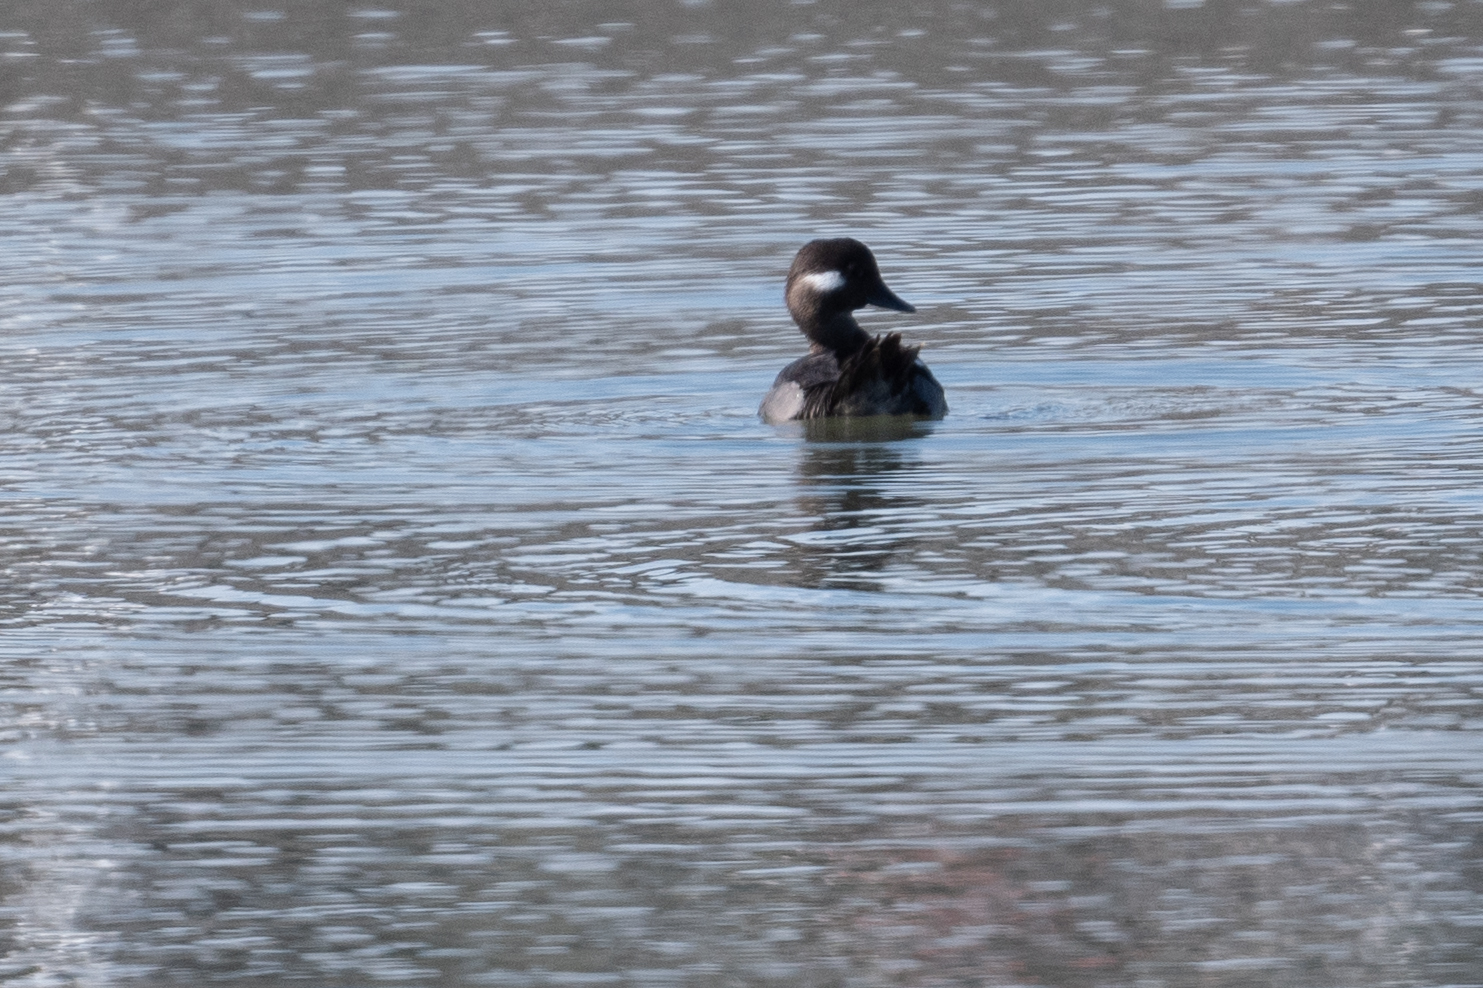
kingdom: Animalia
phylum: Chordata
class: Aves
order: Anseriformes
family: Anatidae
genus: Bucephala
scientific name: Bucephala albeola
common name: Bufflehead
